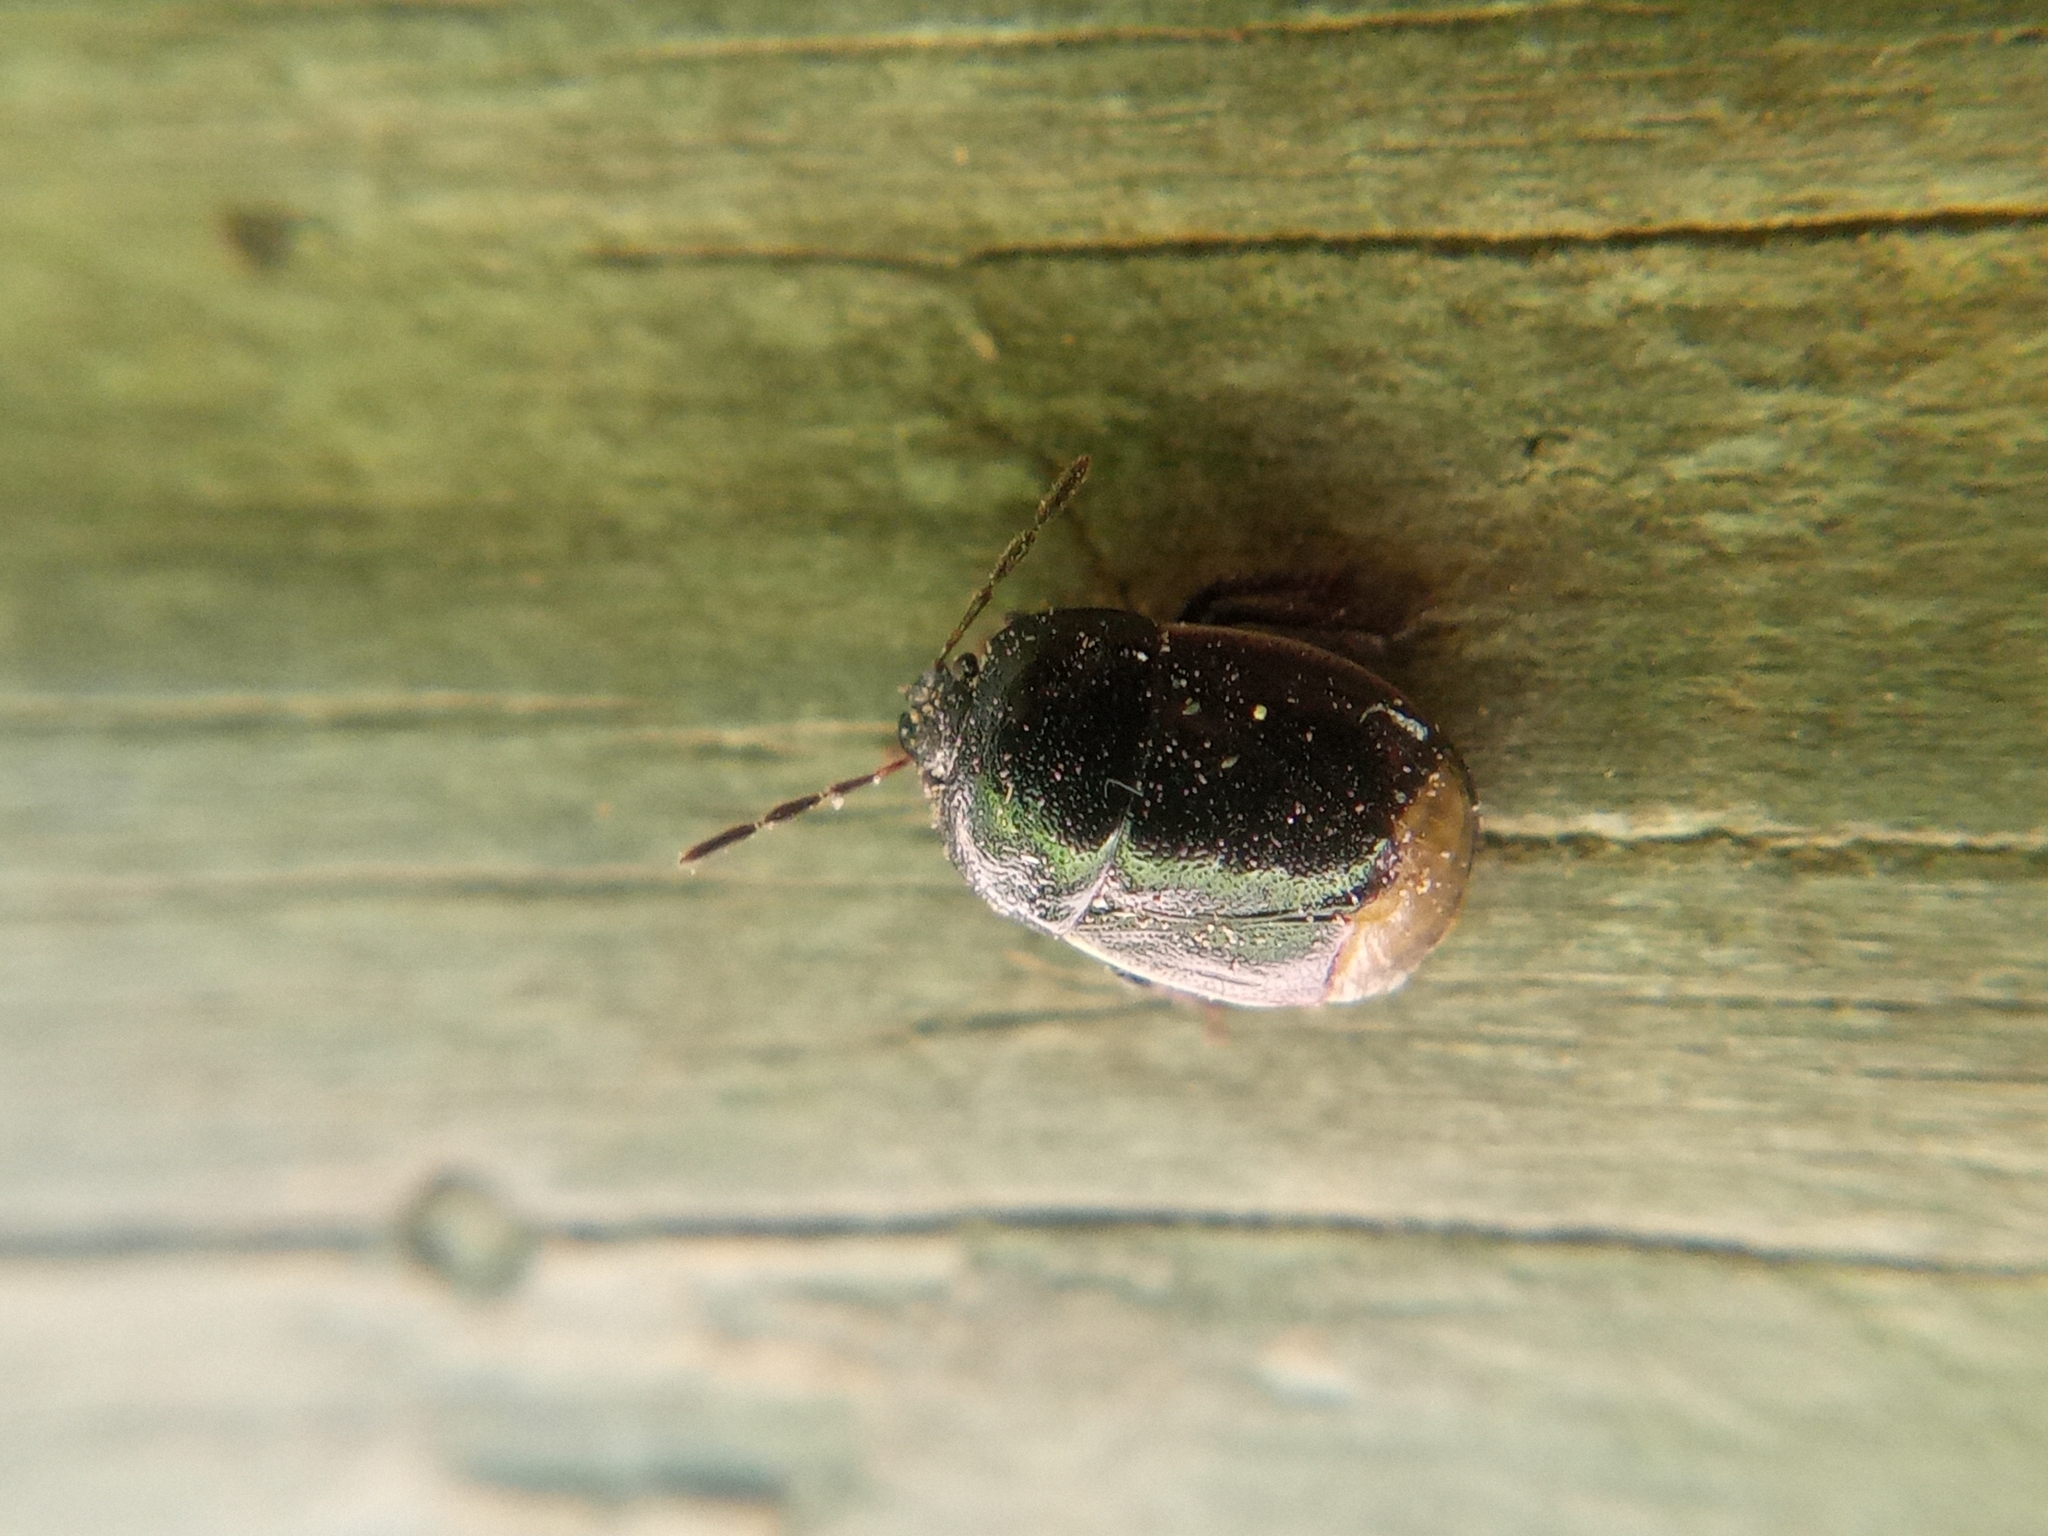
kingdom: Animalia
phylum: Arthropoda
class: Insecta
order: Hemiptera
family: Cydnidae
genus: Legnotus
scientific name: Legnotus limbosus
